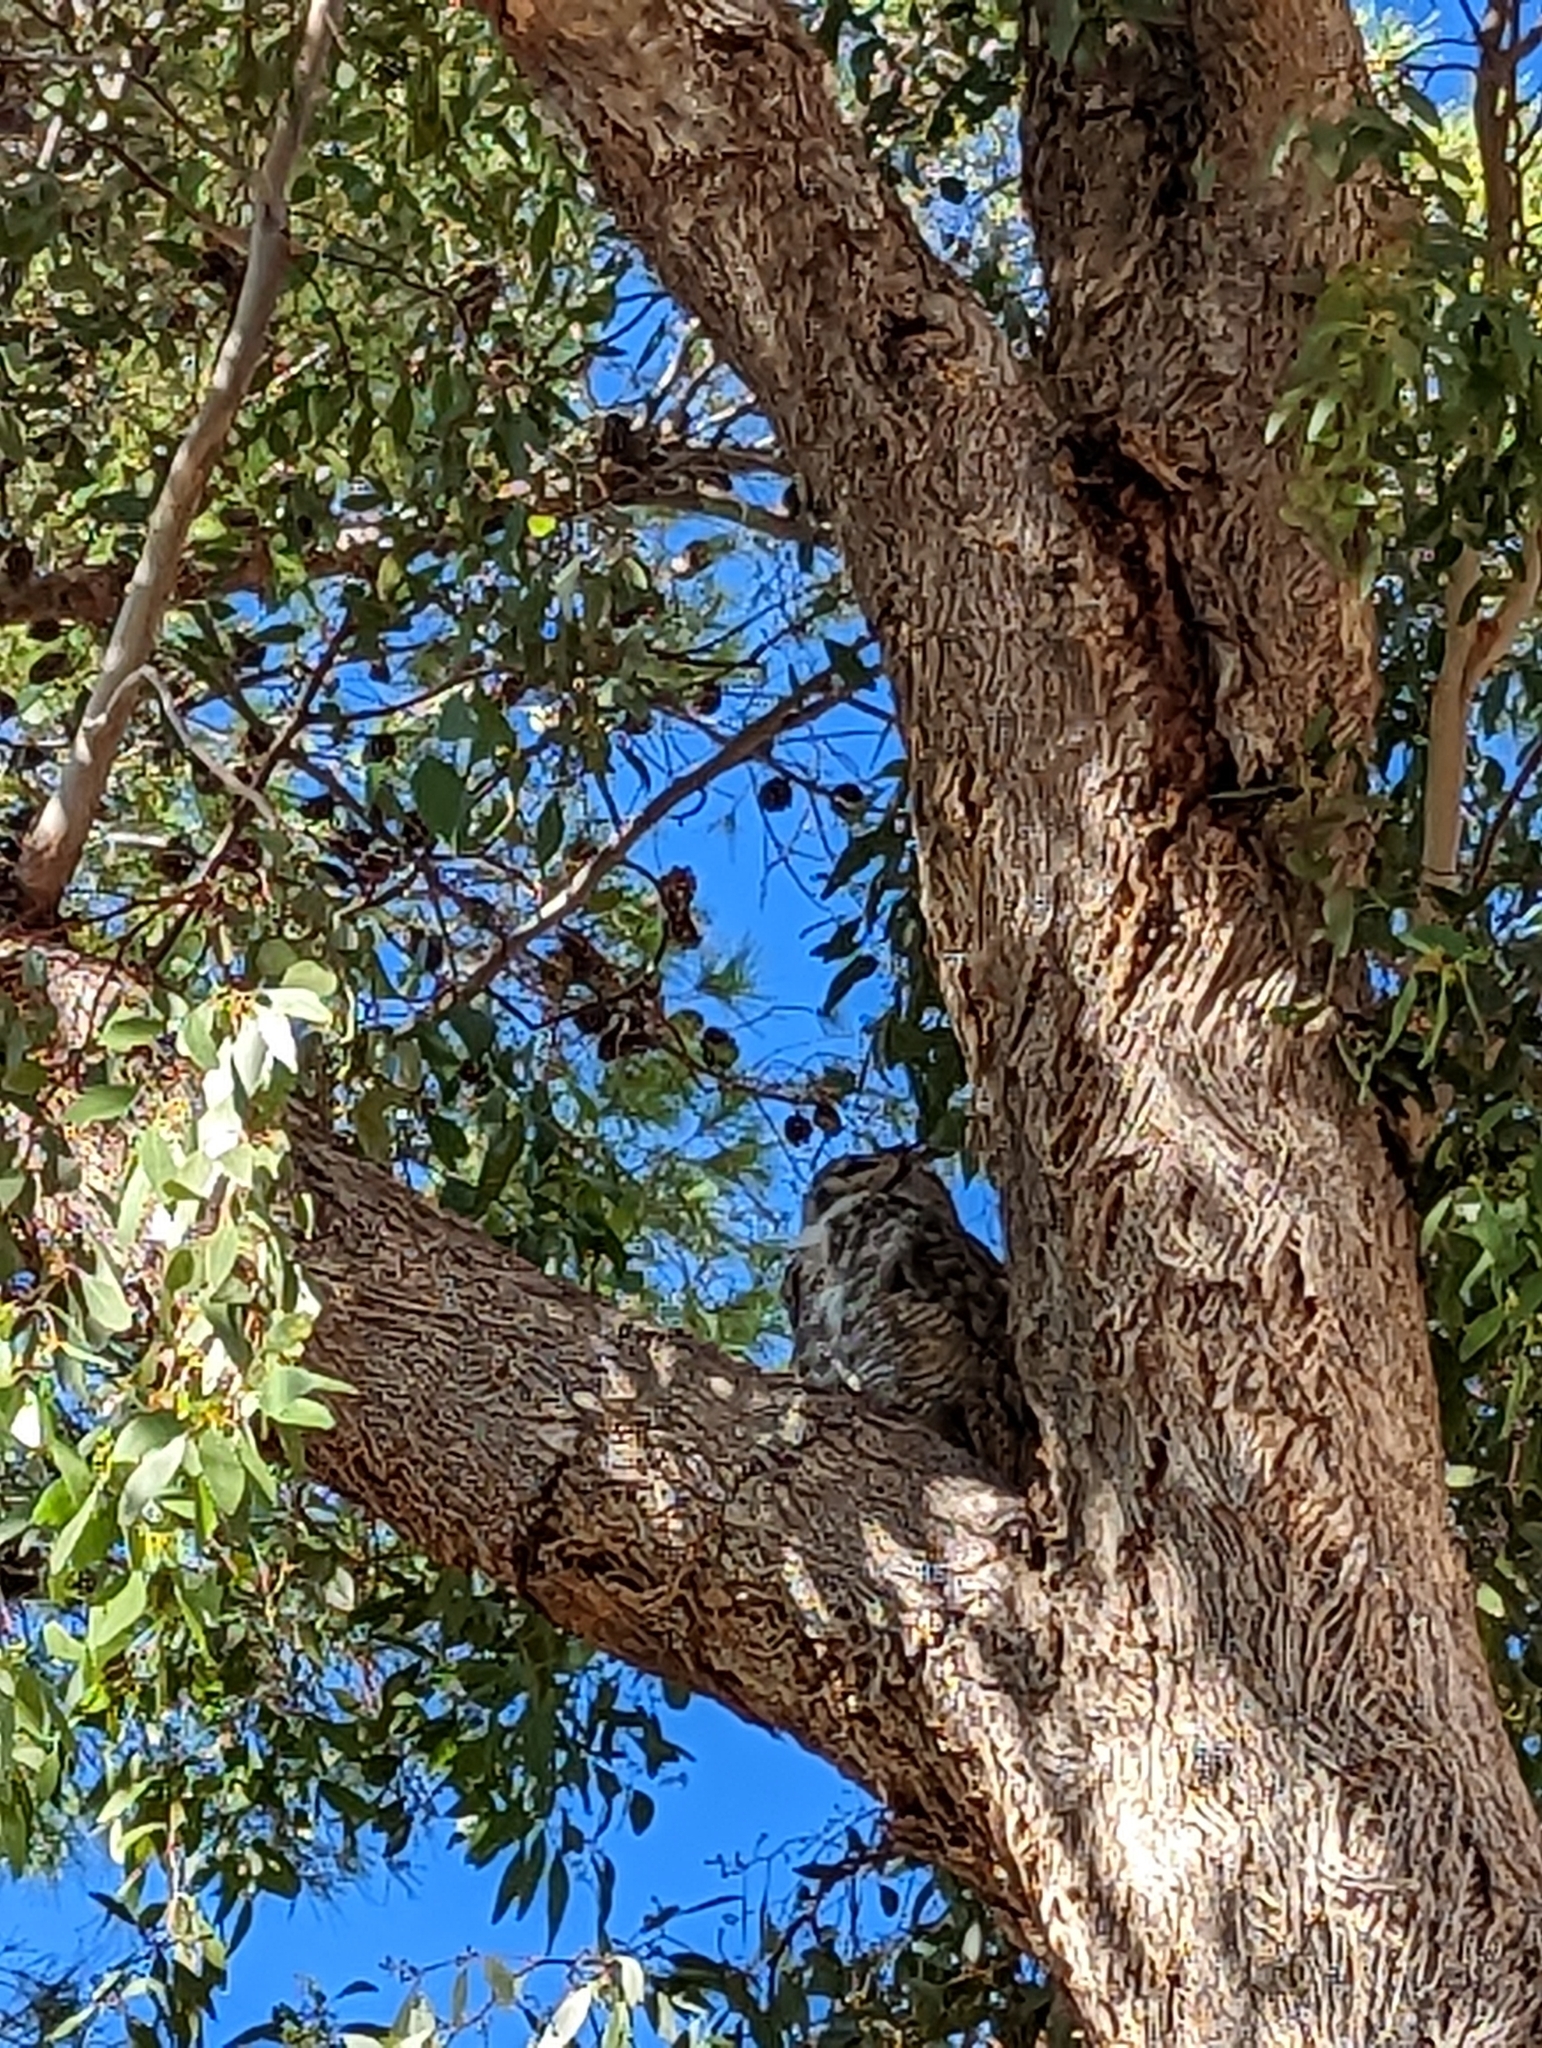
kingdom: Animalia
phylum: Chordata
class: Aves
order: Strigiformes
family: Strigidae
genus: Bubo
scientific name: Bubo virginianus
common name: Great horned owl
